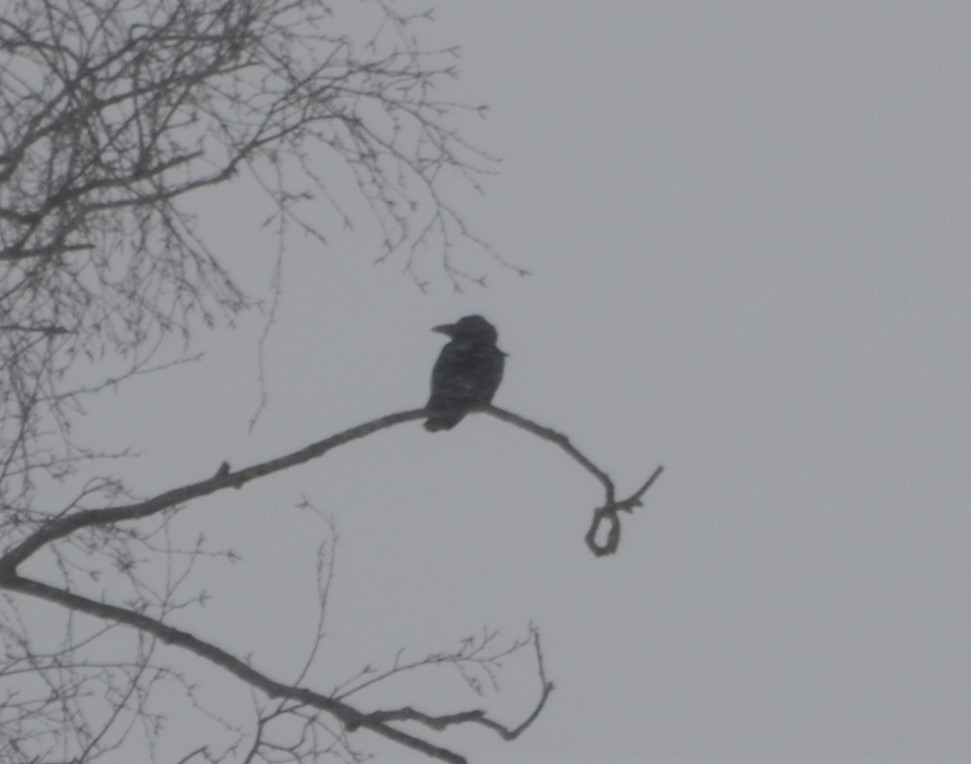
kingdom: Animalia
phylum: Chordata
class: Aves
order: Passeriformes
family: Corvidae
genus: Corvus
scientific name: Corvus corone
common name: Carrion crow
